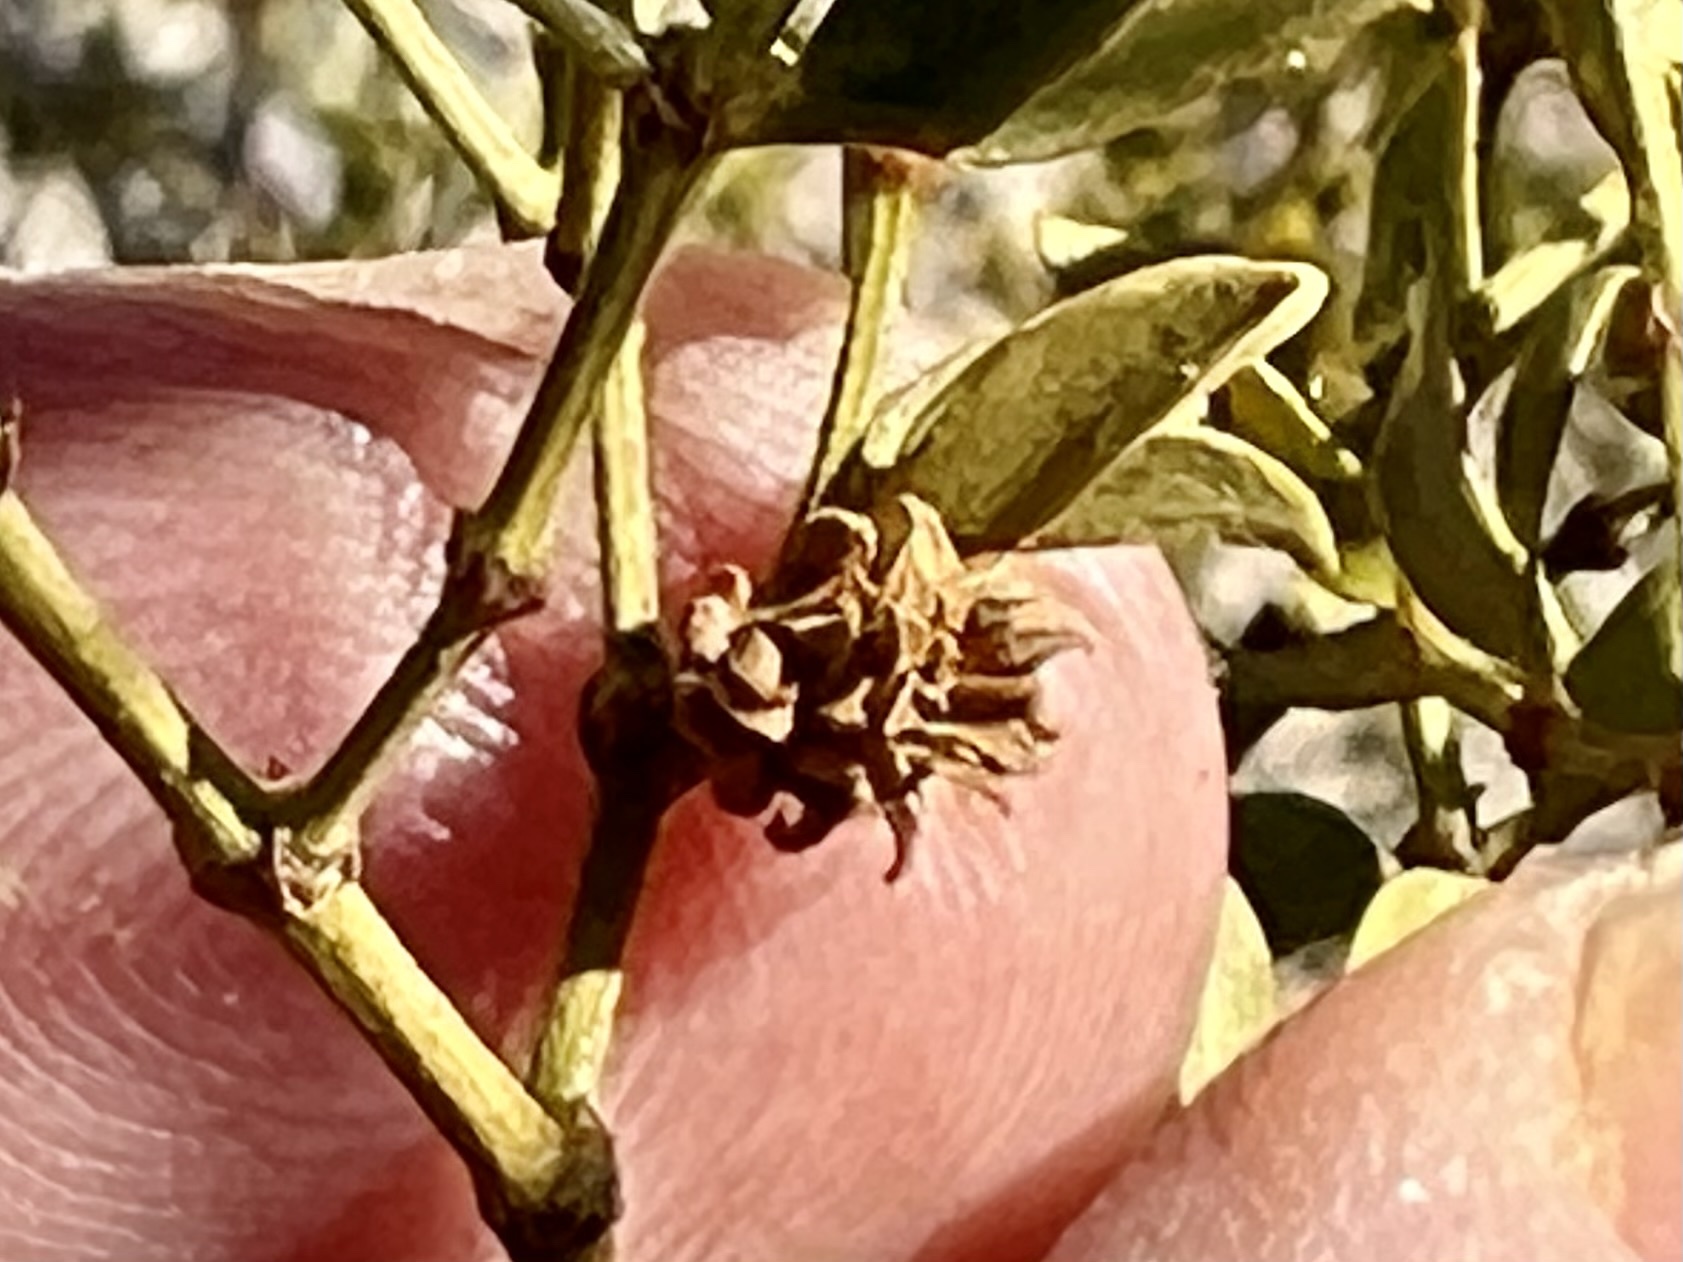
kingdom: Animalia
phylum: Arthropoda
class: Insecta
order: Diptera
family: Cecidomyiidae
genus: Asphondylia
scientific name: Asphondylia rosetta
